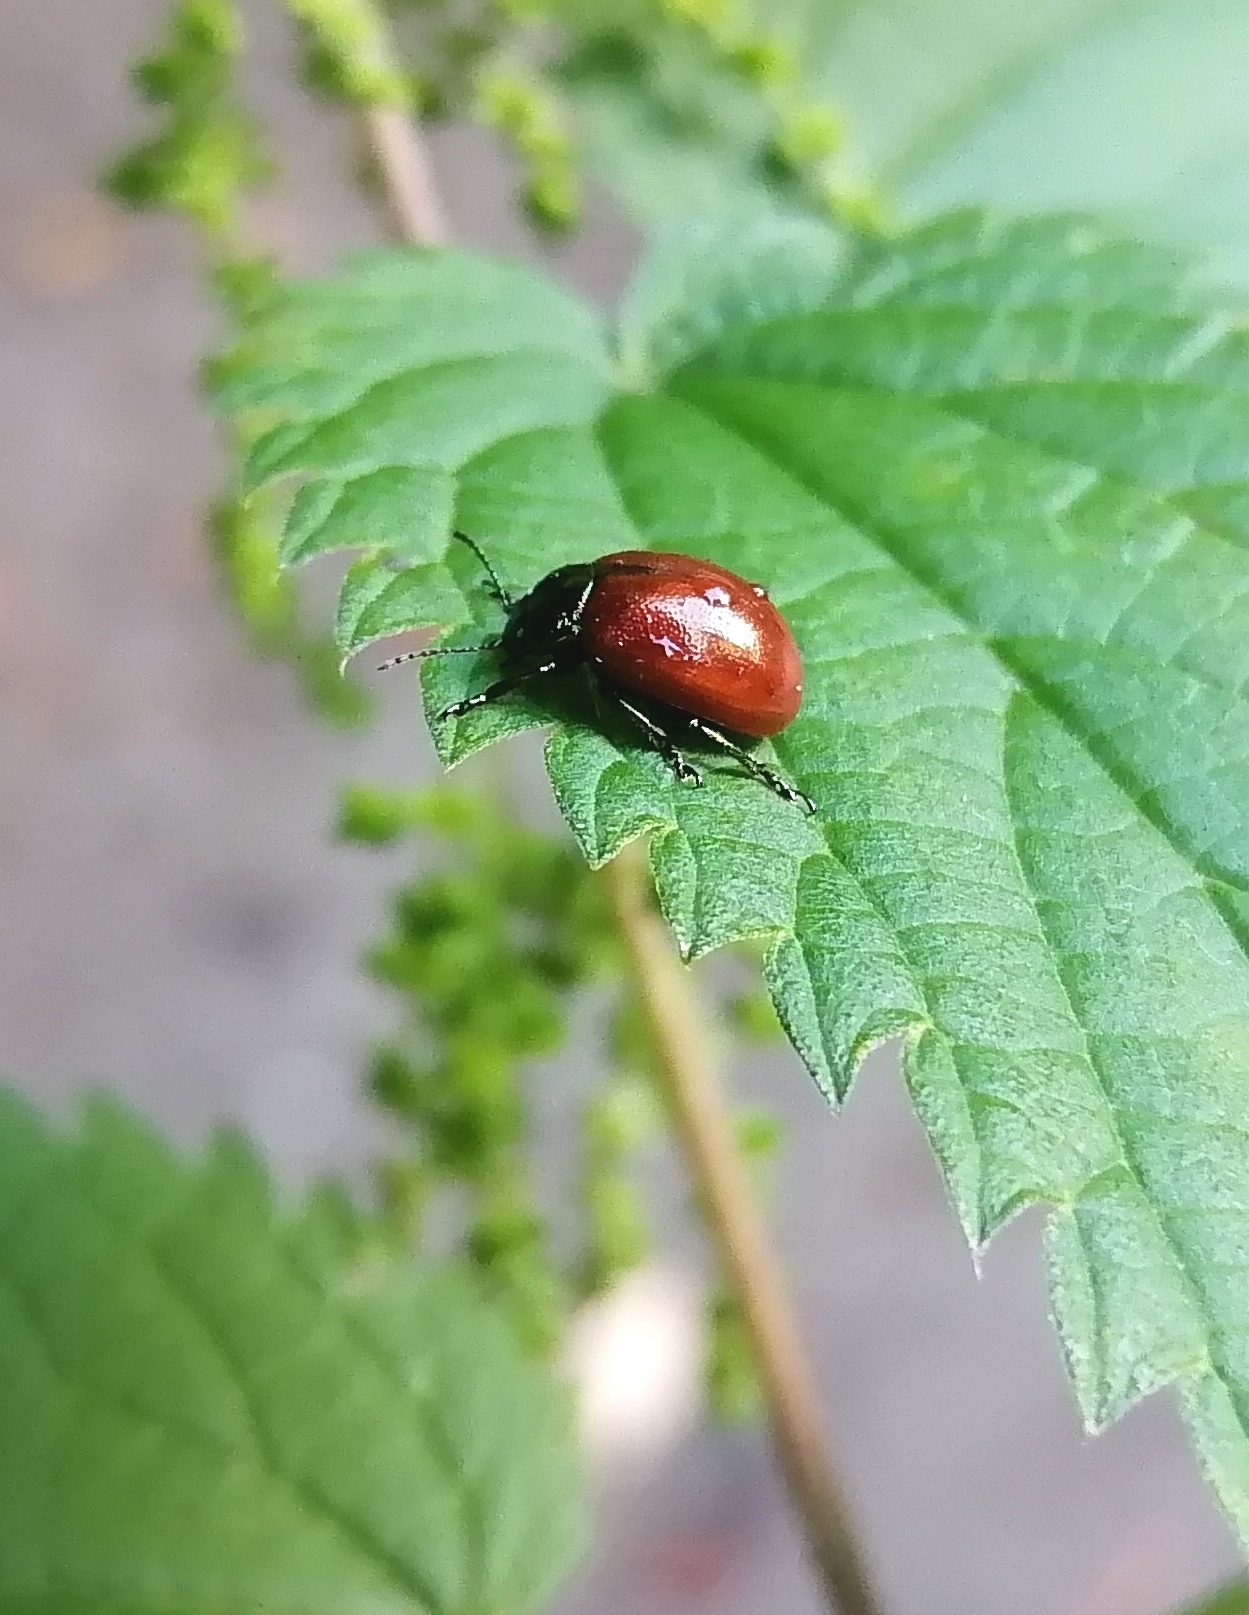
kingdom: Animalia
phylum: Arthropoda
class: Insecta
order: Coleoptera
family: Chrysomelidae
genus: Chrysomela
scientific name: Chrysomela polita
